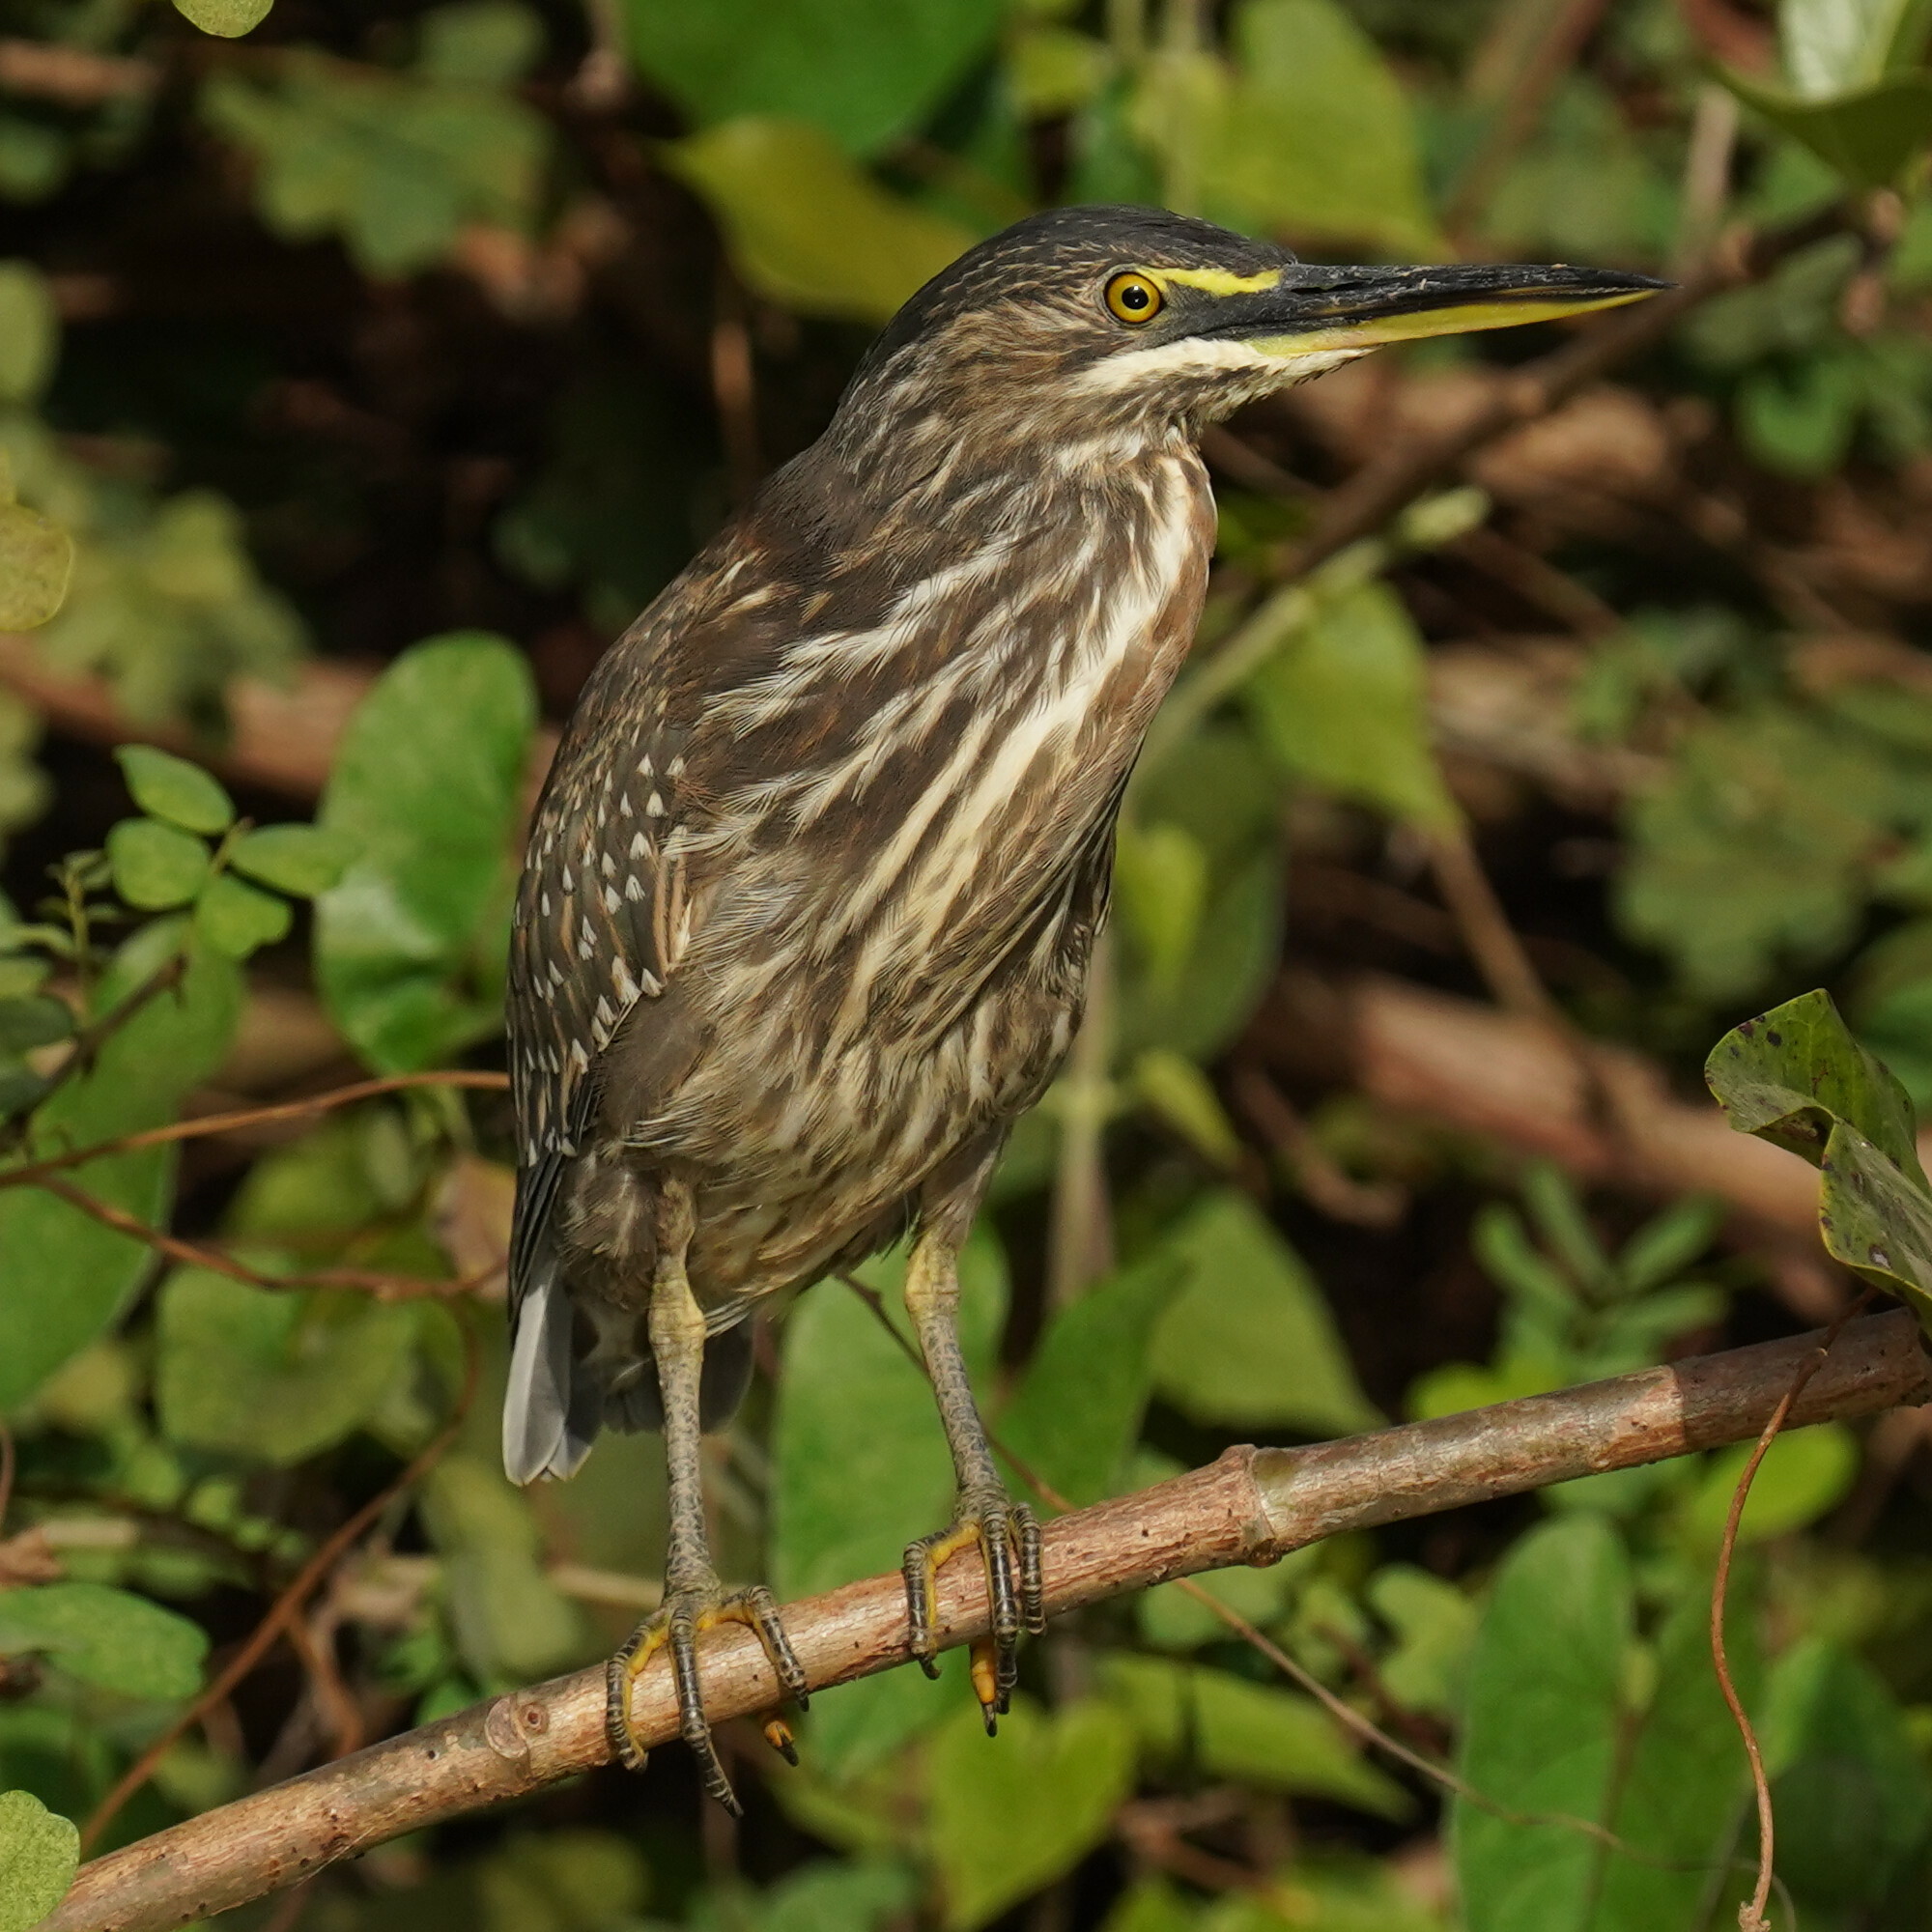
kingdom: Animalia
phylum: Chordata
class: Aves
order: Pelecaniformes
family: Ardeidae
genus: Butorides
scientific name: Butorides striata
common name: Striated heron
